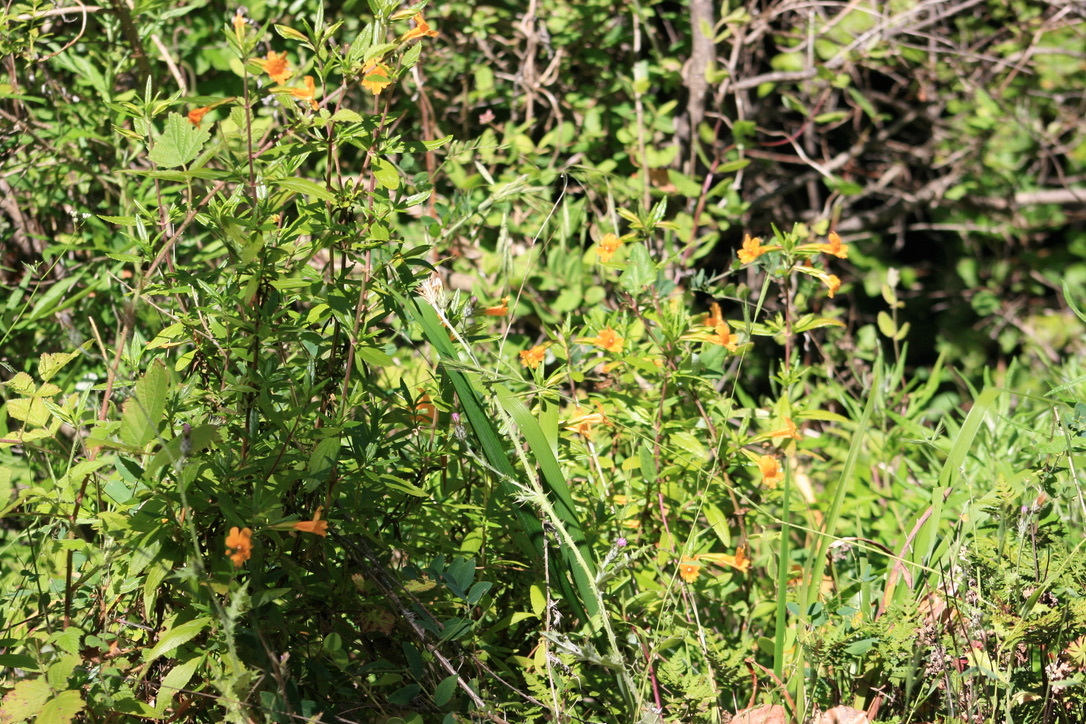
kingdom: Plantae
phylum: Tracheophyta
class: Magnoliopsida
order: Lamiales
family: Phrymaceae
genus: Diplacus
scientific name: Diplacus aurantiacus
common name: Bush monkey-flower
